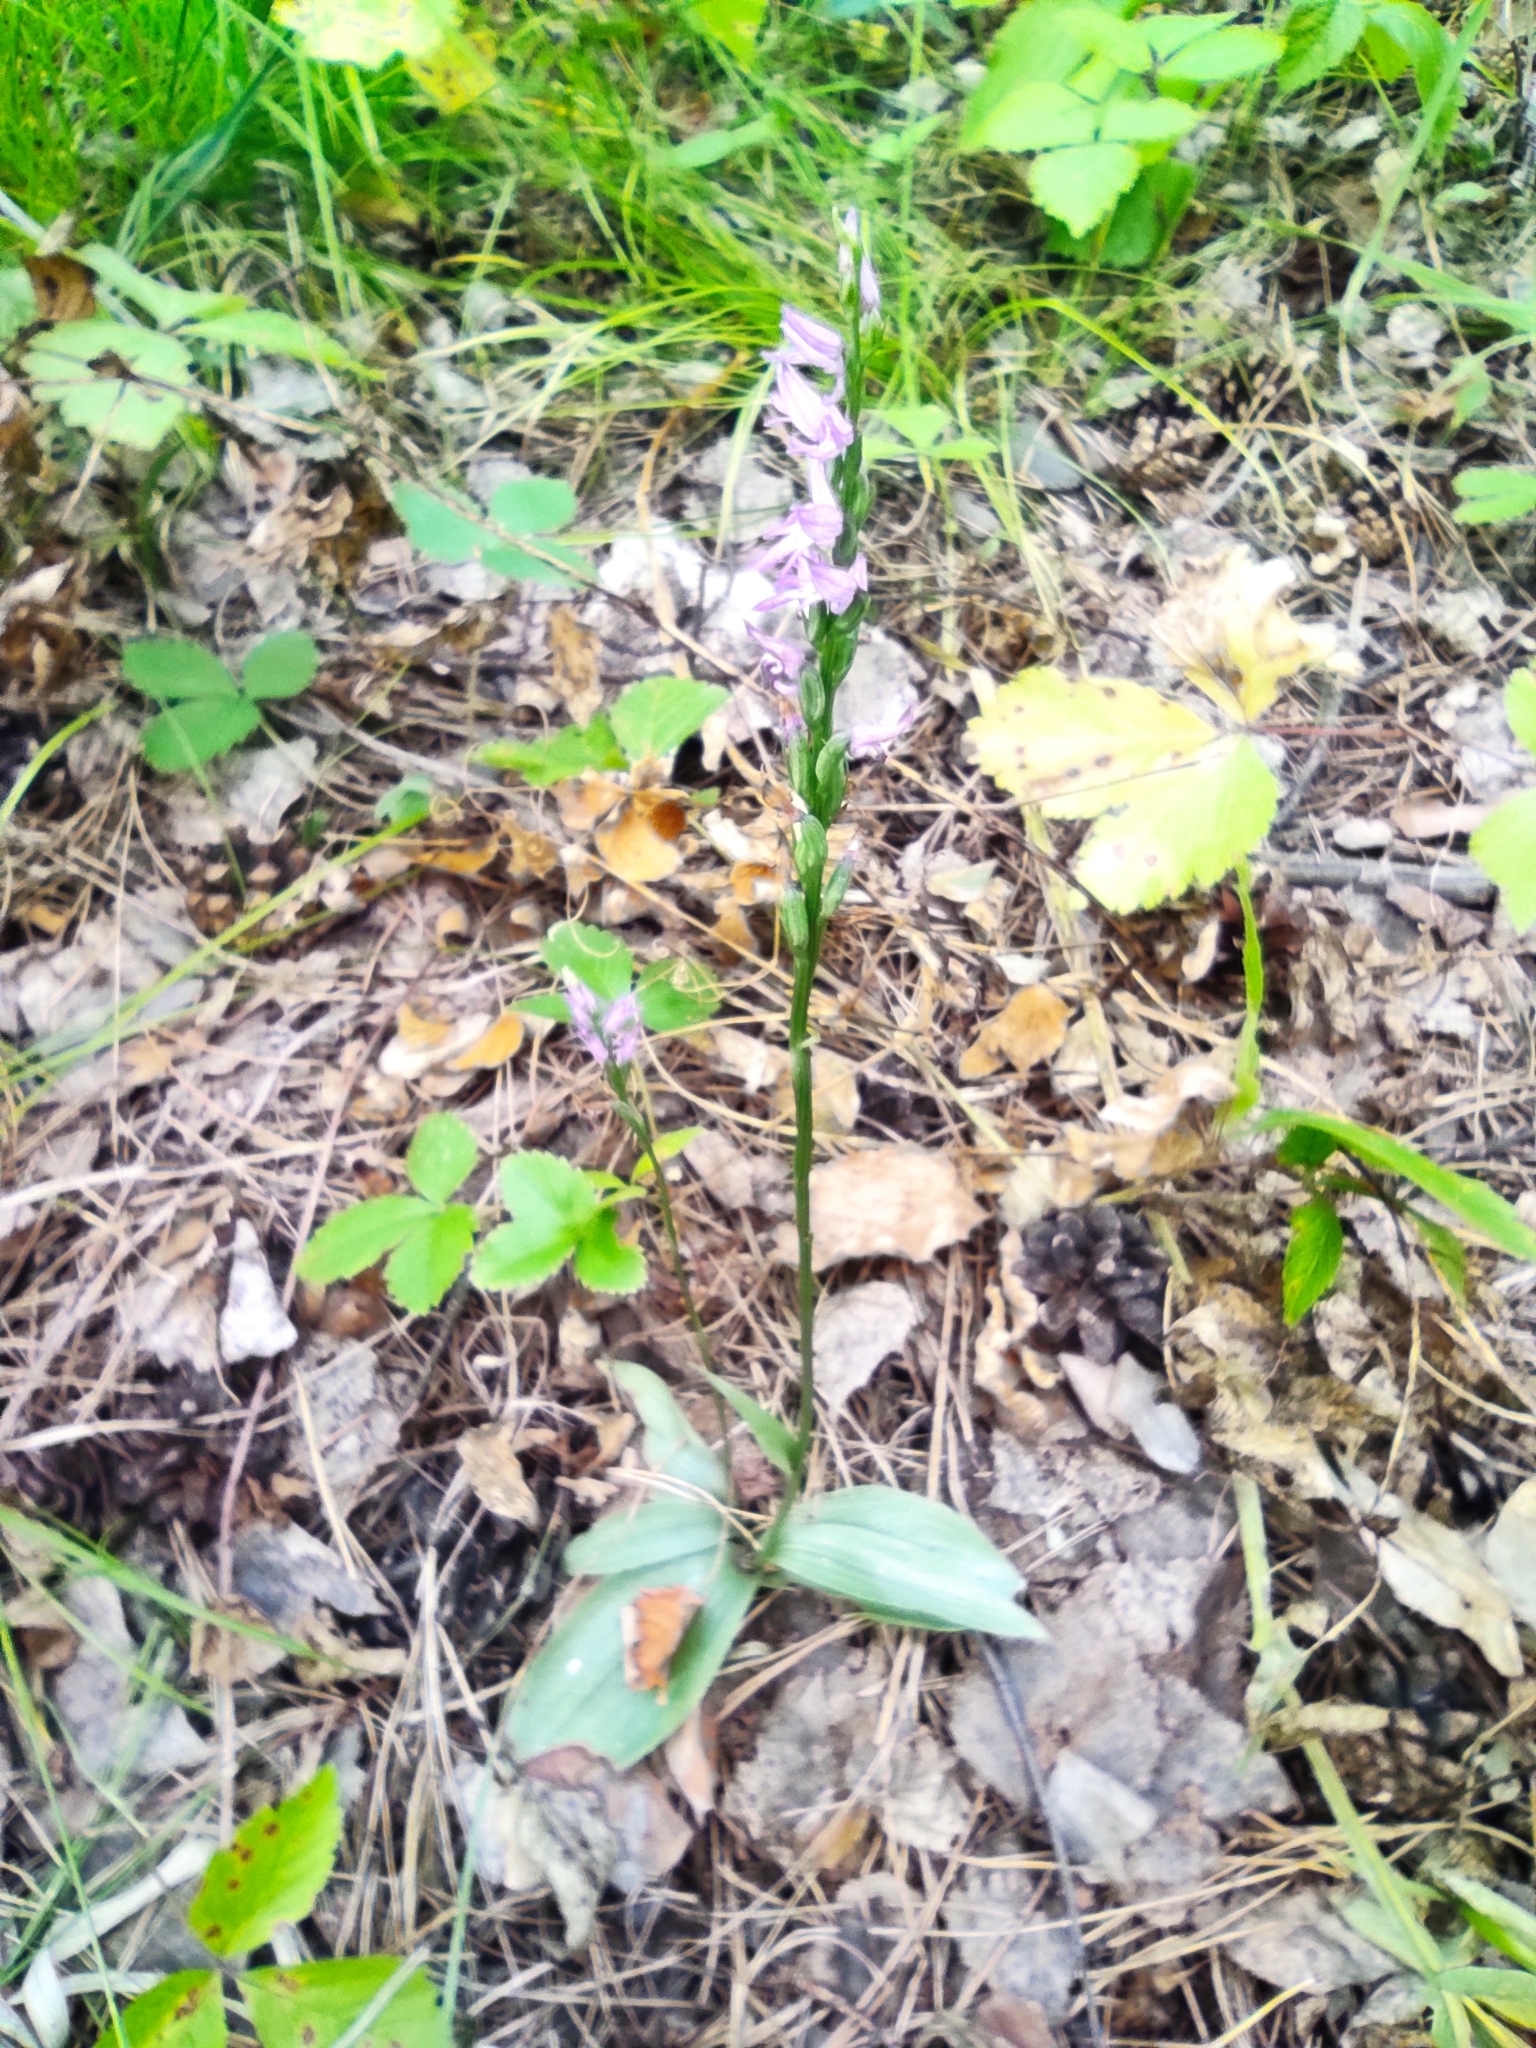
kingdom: Plantae
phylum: Tracheophyta
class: Liliopsida
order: Asparagales
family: Orchidaceae
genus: Hemipilia
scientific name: Hemipilia cucullata
